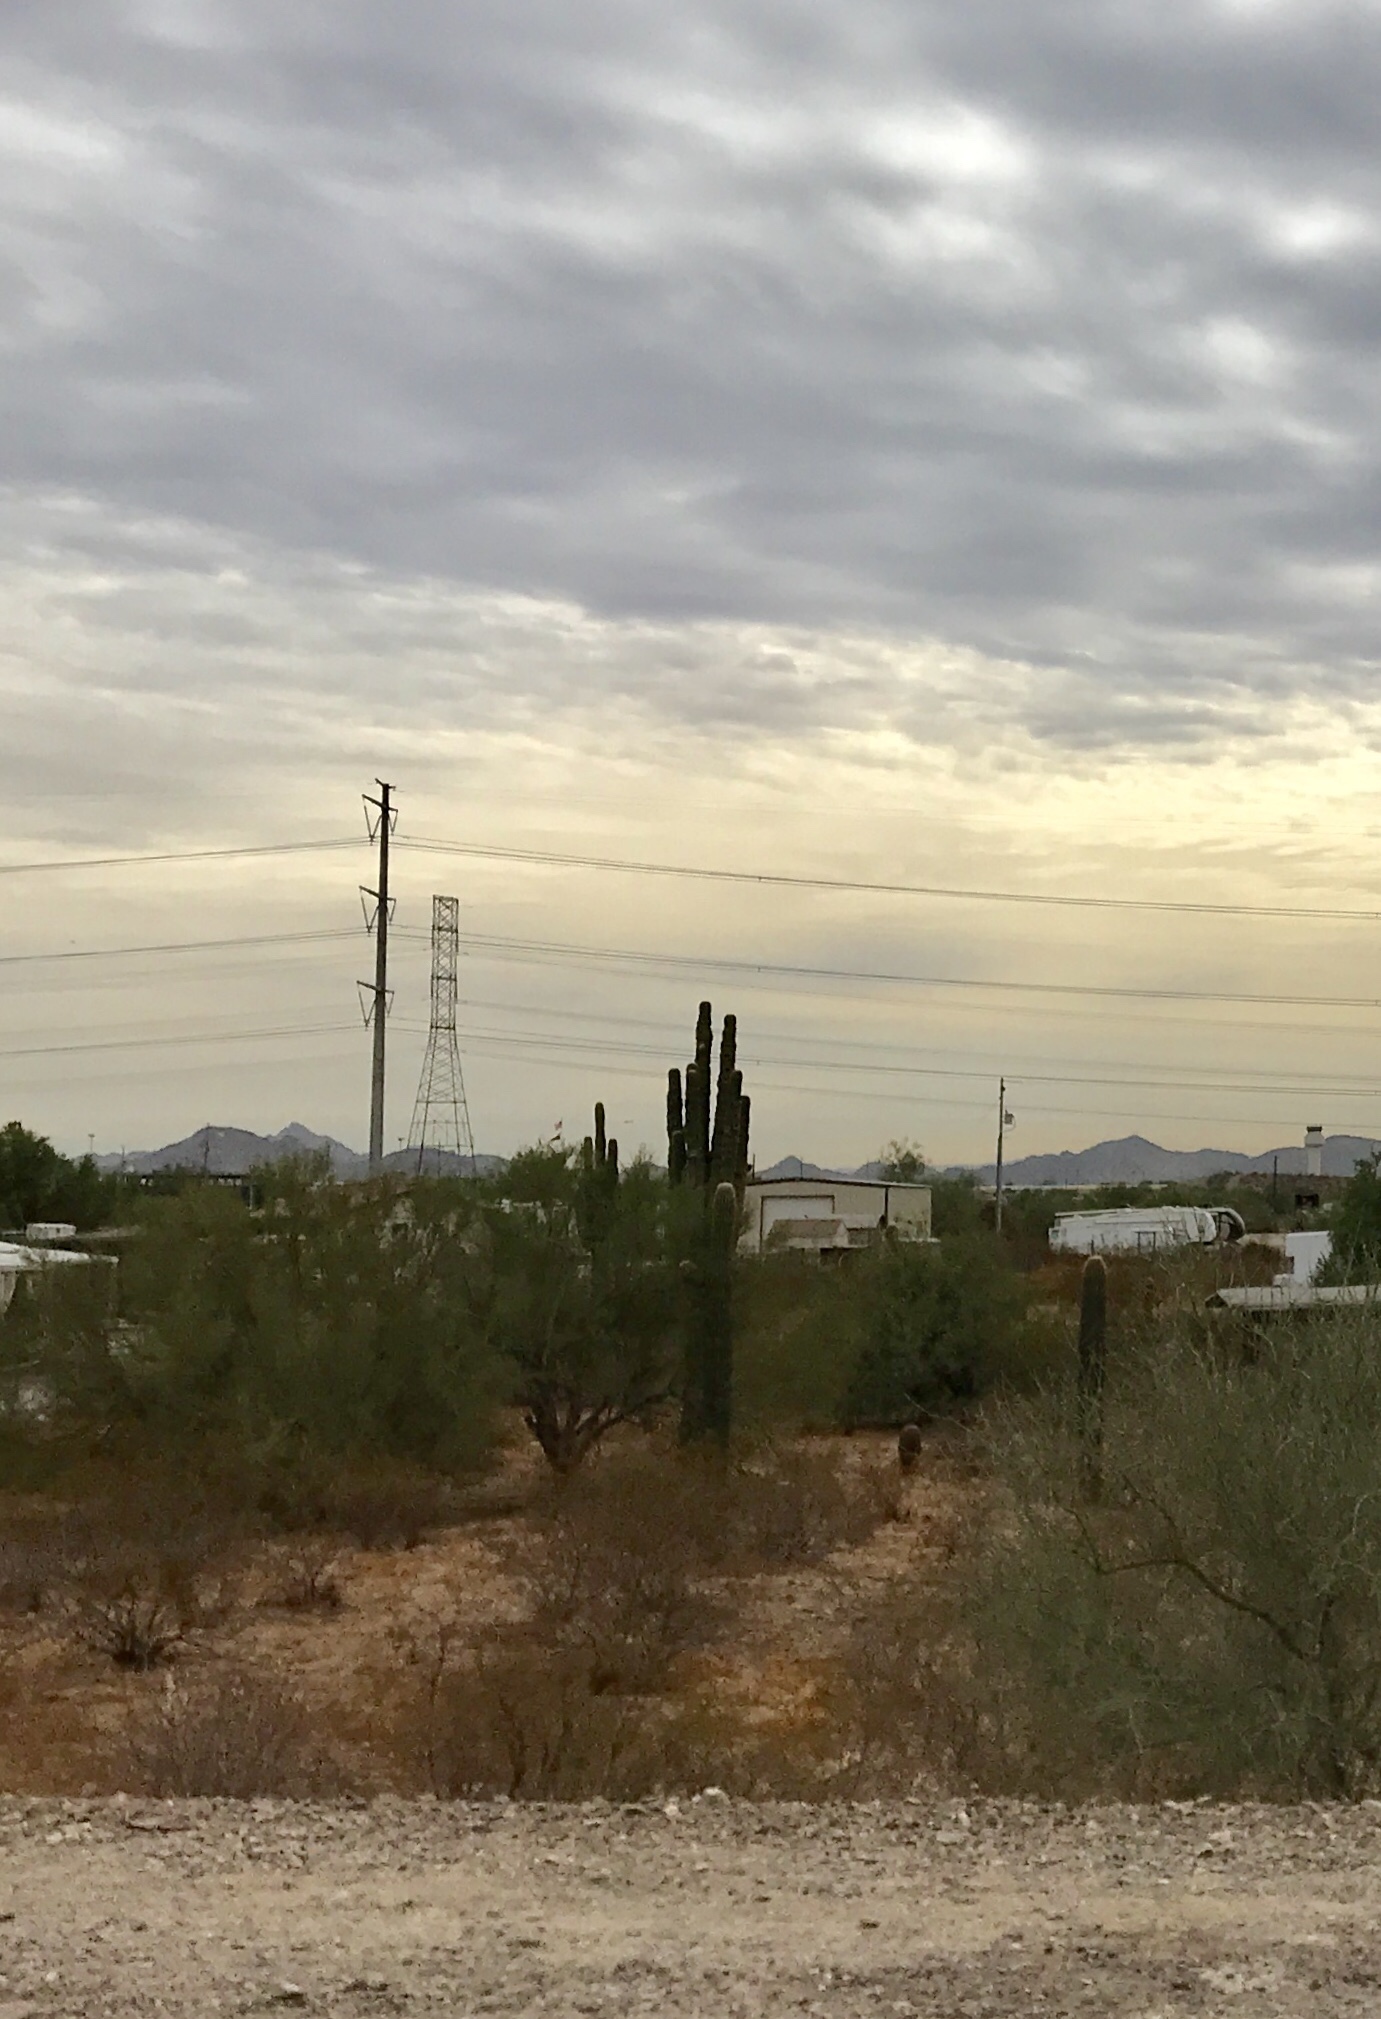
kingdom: Plantae
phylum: Tracheophyta
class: Magnoliopsida
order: Caryophyllales
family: Cactaceae
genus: Carnegiea
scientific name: Carnegiea gigantea
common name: Saguaro
